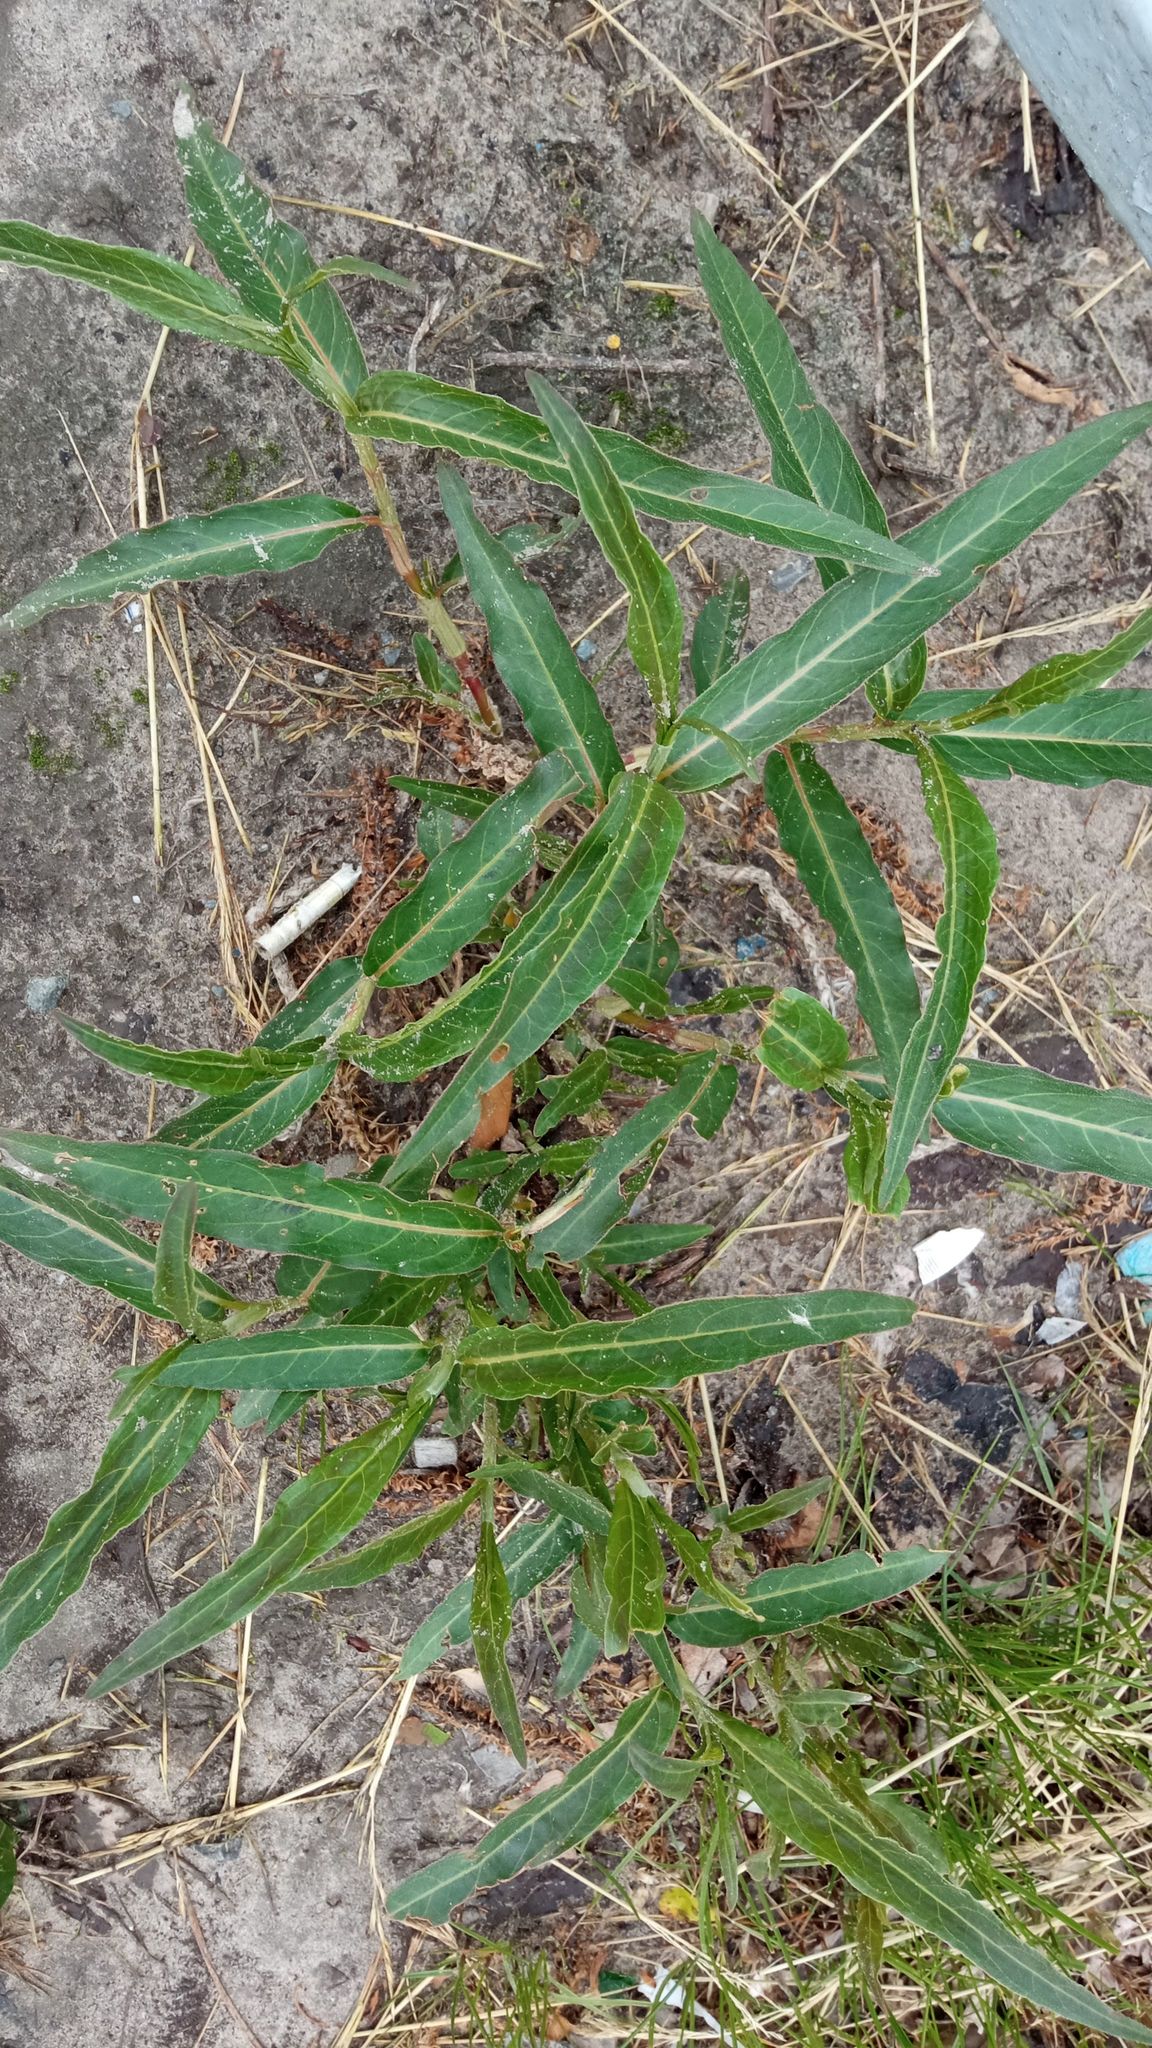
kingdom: Plantae
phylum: Tracheophyta
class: Magnoliopsida
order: Caryophyllales
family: Polygonaceae
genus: Persicaria
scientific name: Persicaria amphibia
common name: Amphibious bistort
